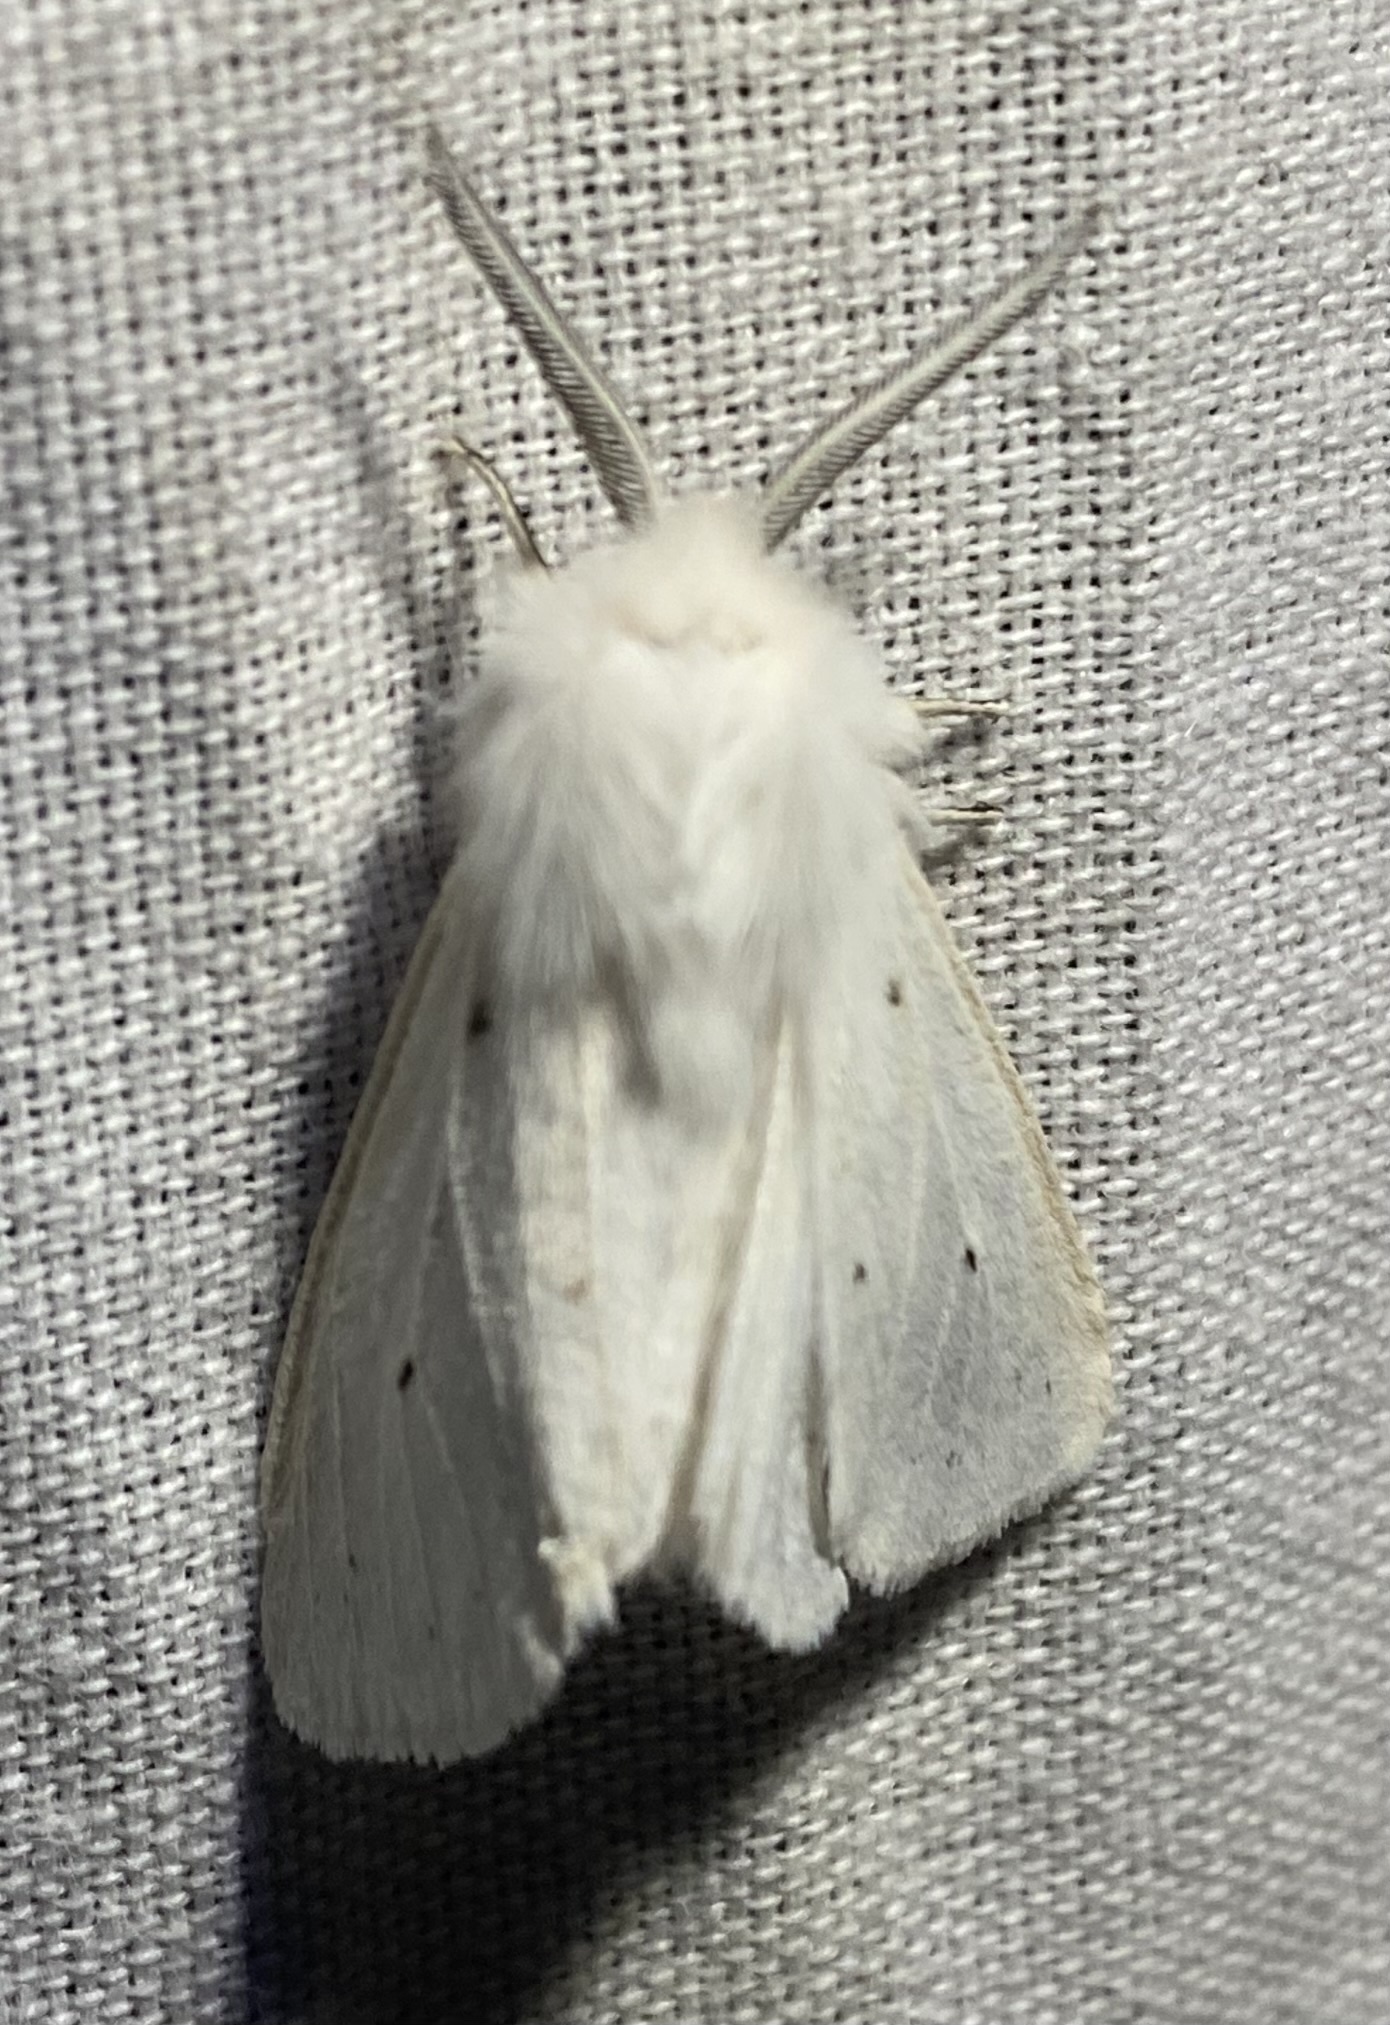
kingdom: Animalia
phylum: Arthropoda
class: Insecta
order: Lepidoptera
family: Erebidae
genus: Spilosoma
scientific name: Spilosoma congrua
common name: Agreeable tiger moth
